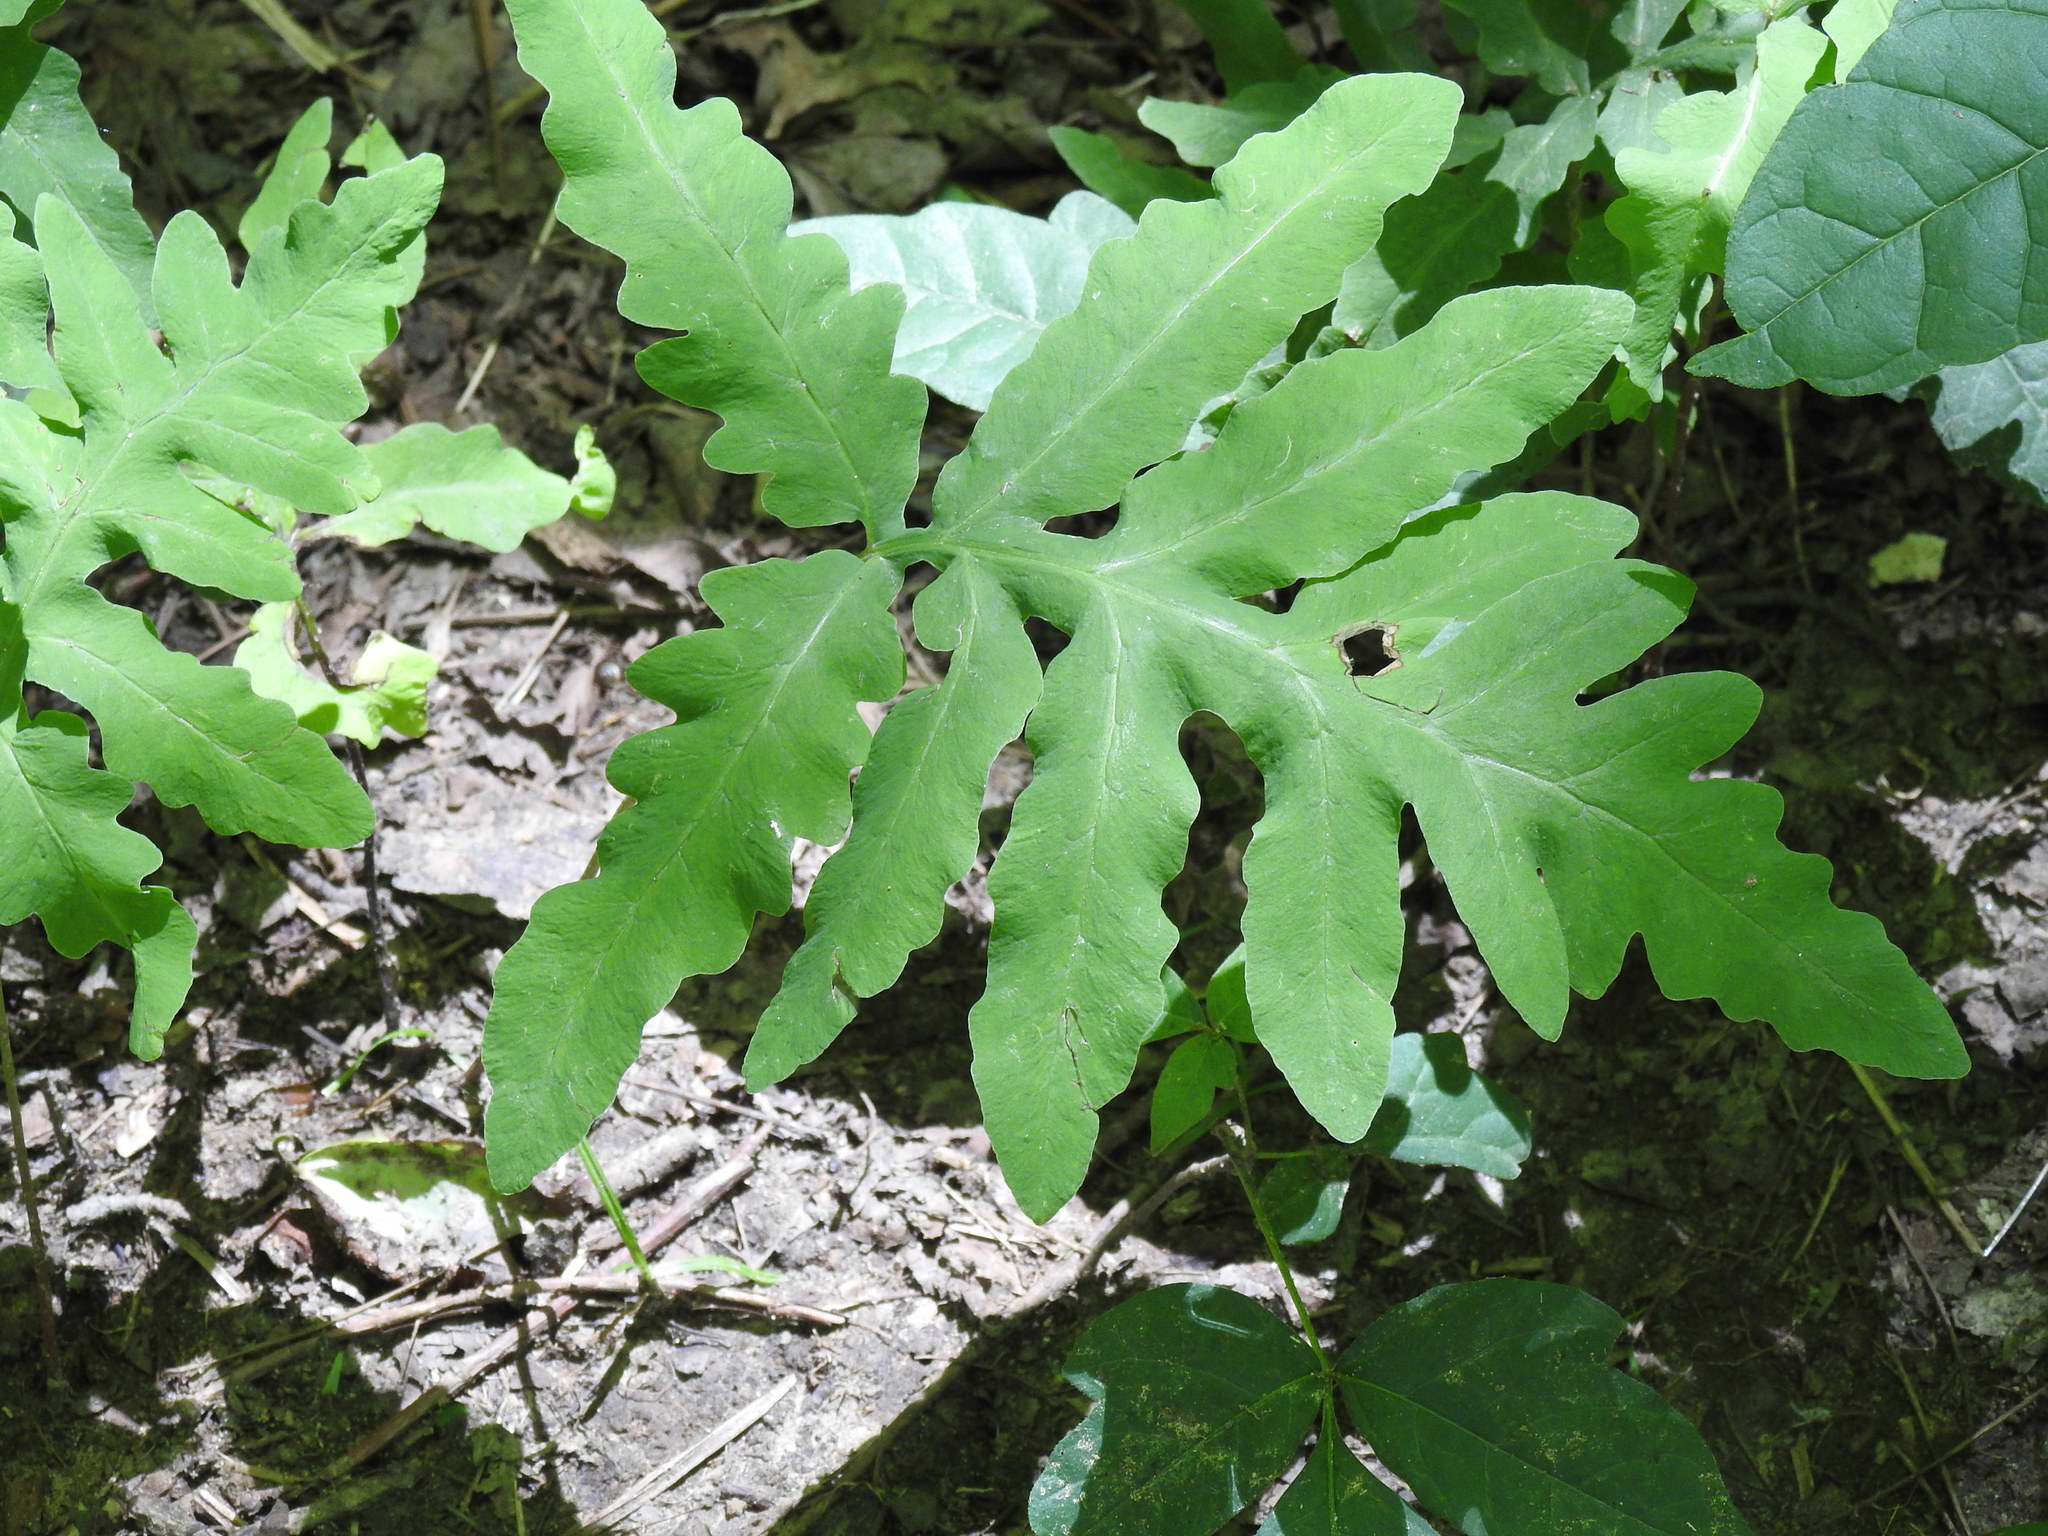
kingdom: Plantae
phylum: Tracheophyta
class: Polypodiopsida
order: Polypodiales
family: Onocleaceae
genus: Onoclea
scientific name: Onoclea sensibilis
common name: Sensitive fern
